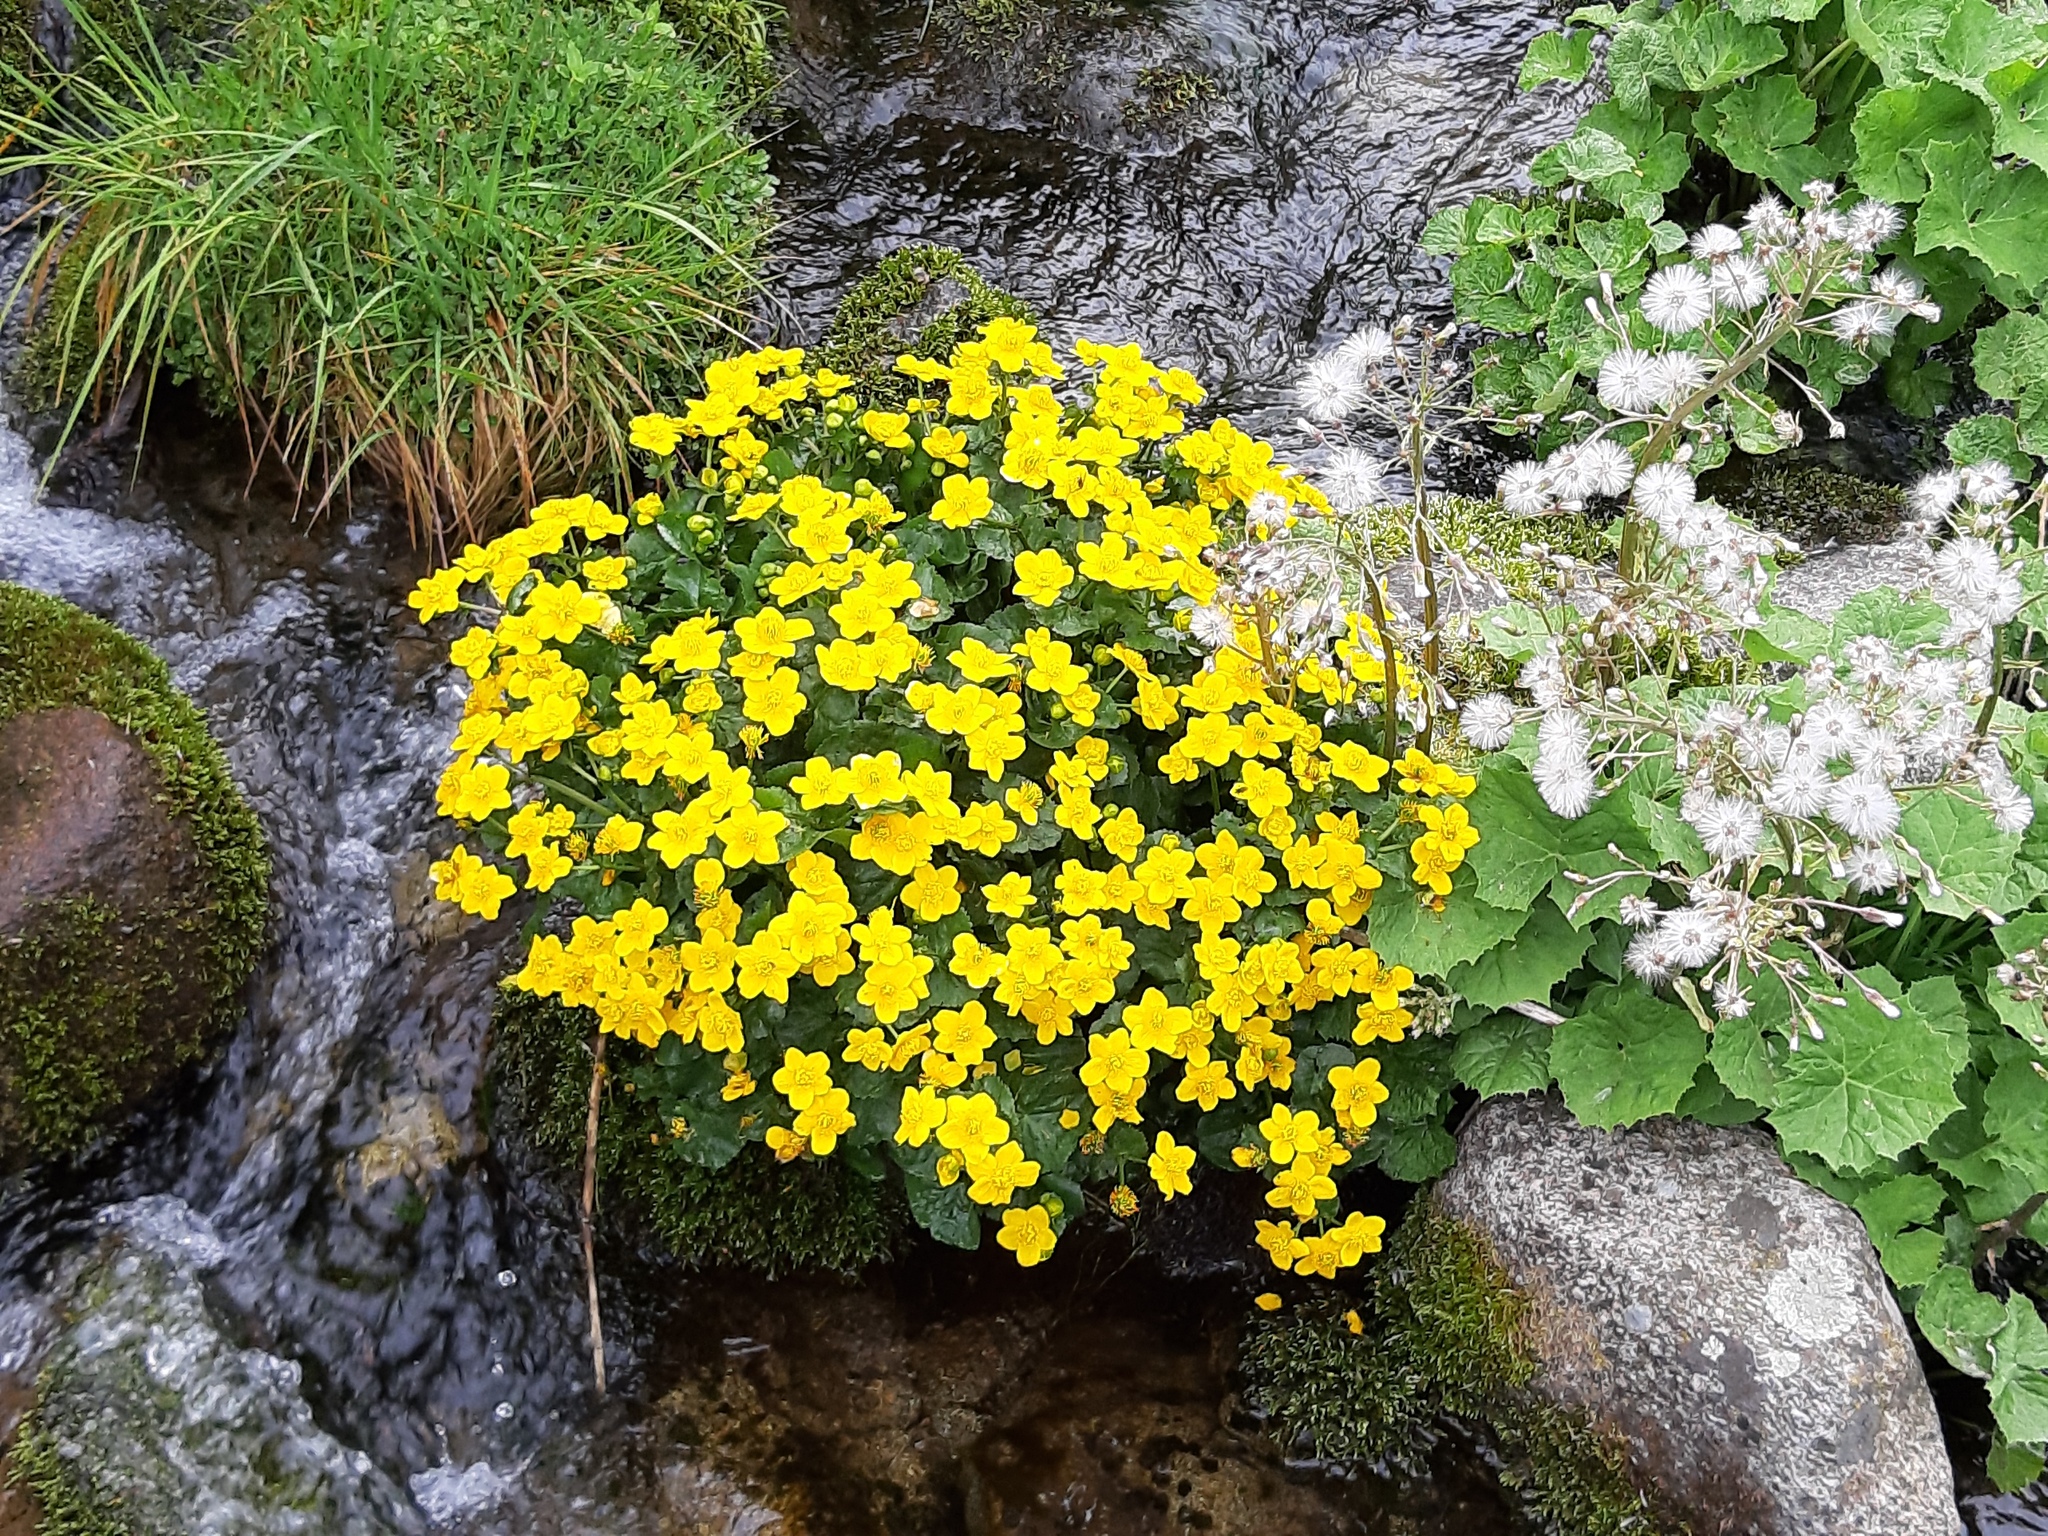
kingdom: Plantae
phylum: Tracheophyta
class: Magnoliopsida
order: Ranunculales
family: Ranunculaceae
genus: Caltha
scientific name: Caltha palustris
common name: Marsh marigold
